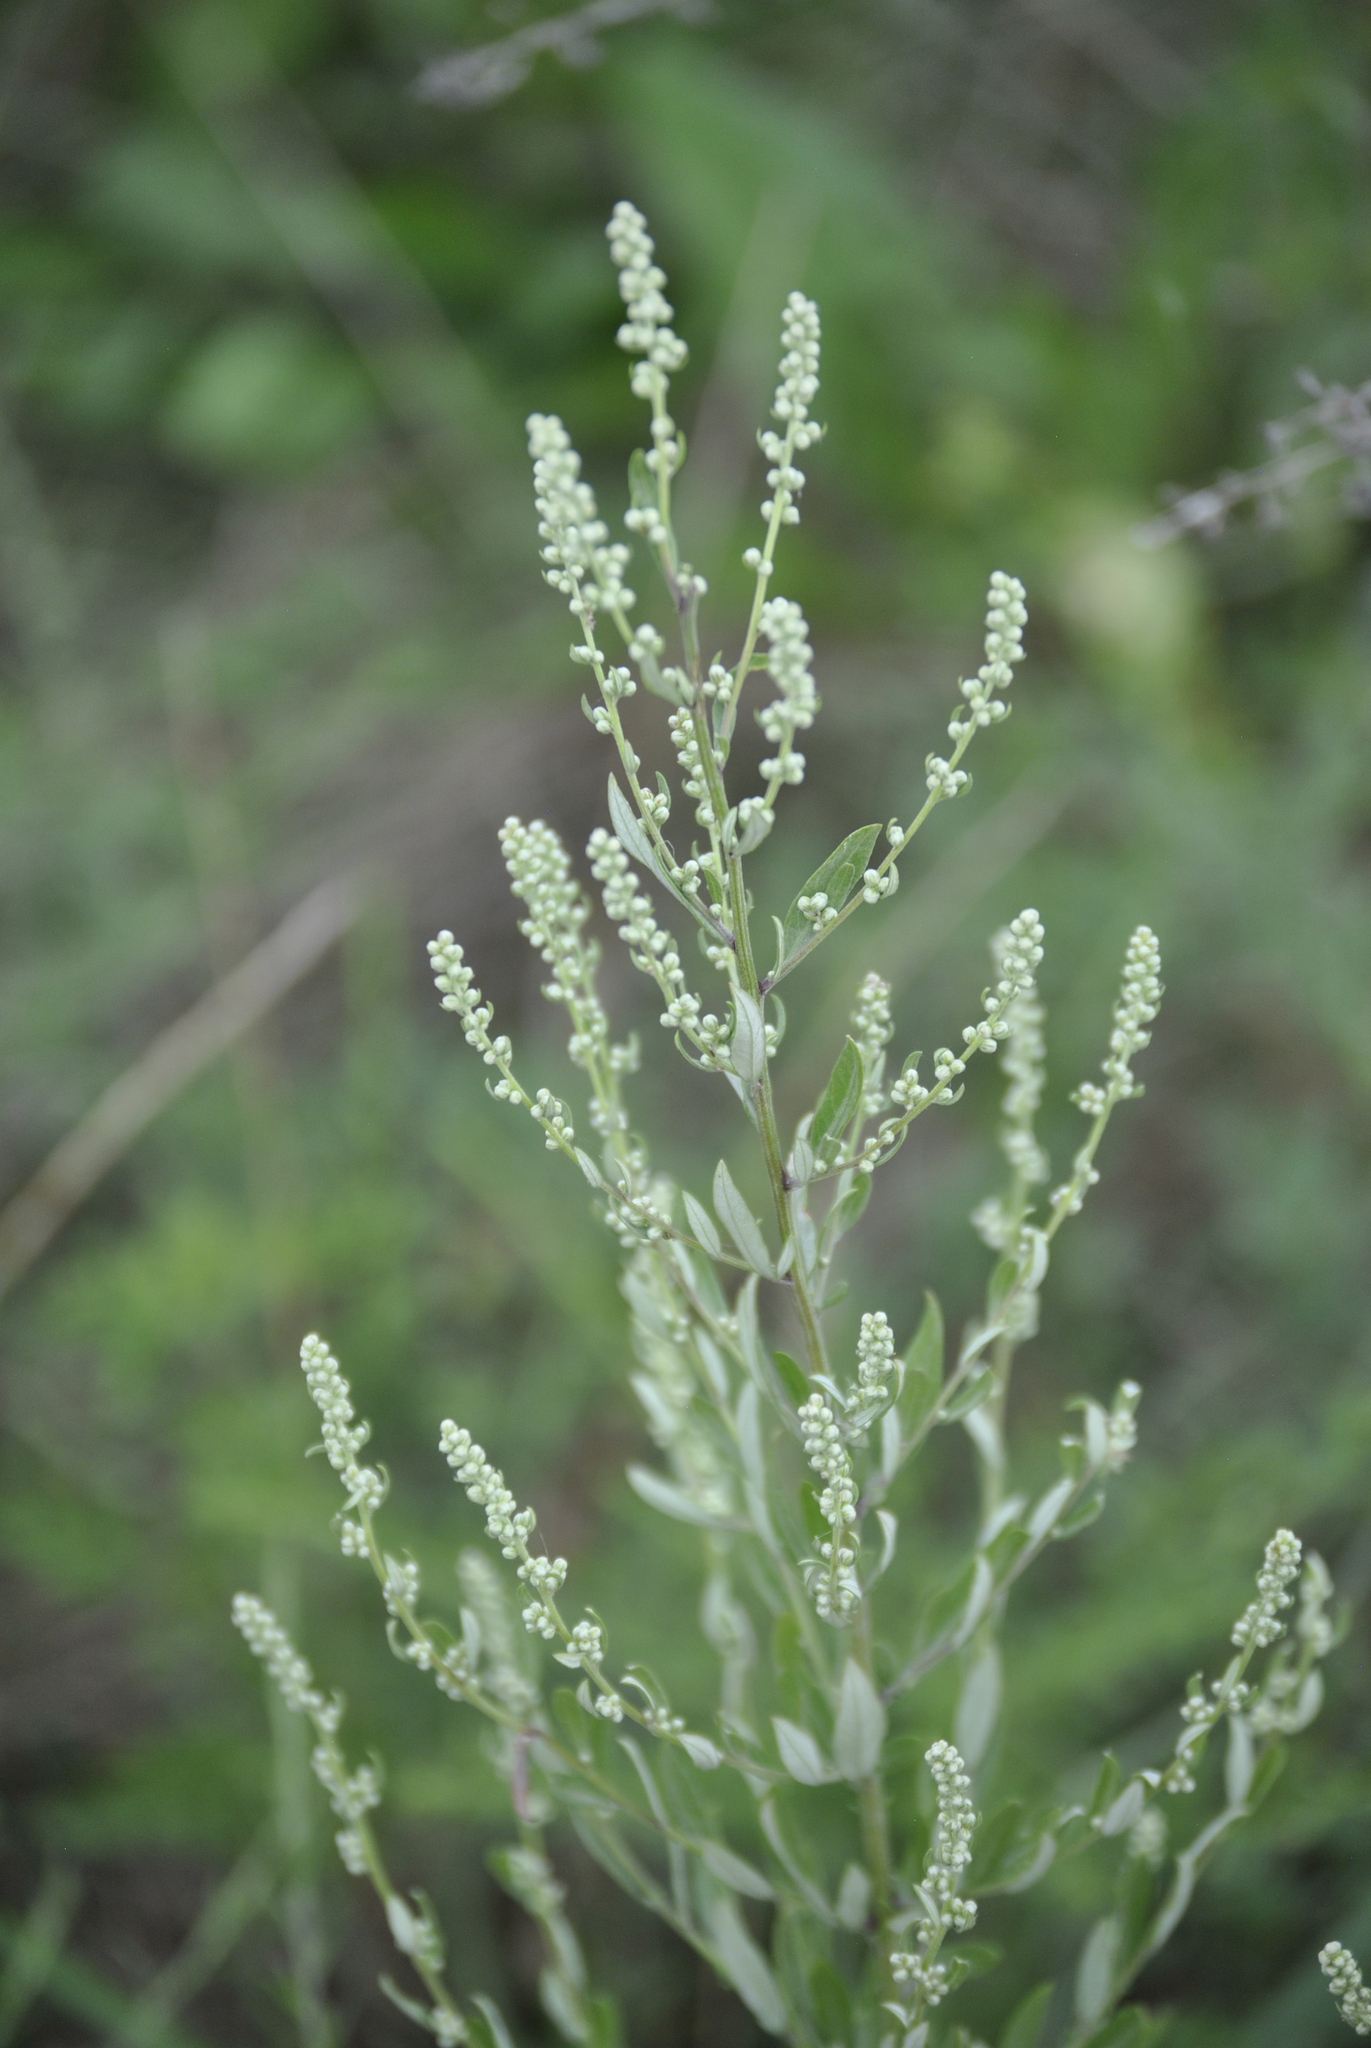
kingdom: Plantae
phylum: Tracheophyta
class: Magnoliopsida
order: Caryophyllales
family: Amaranthaceae
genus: Chenopodium
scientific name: Chenopodium album
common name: Fat-hen
